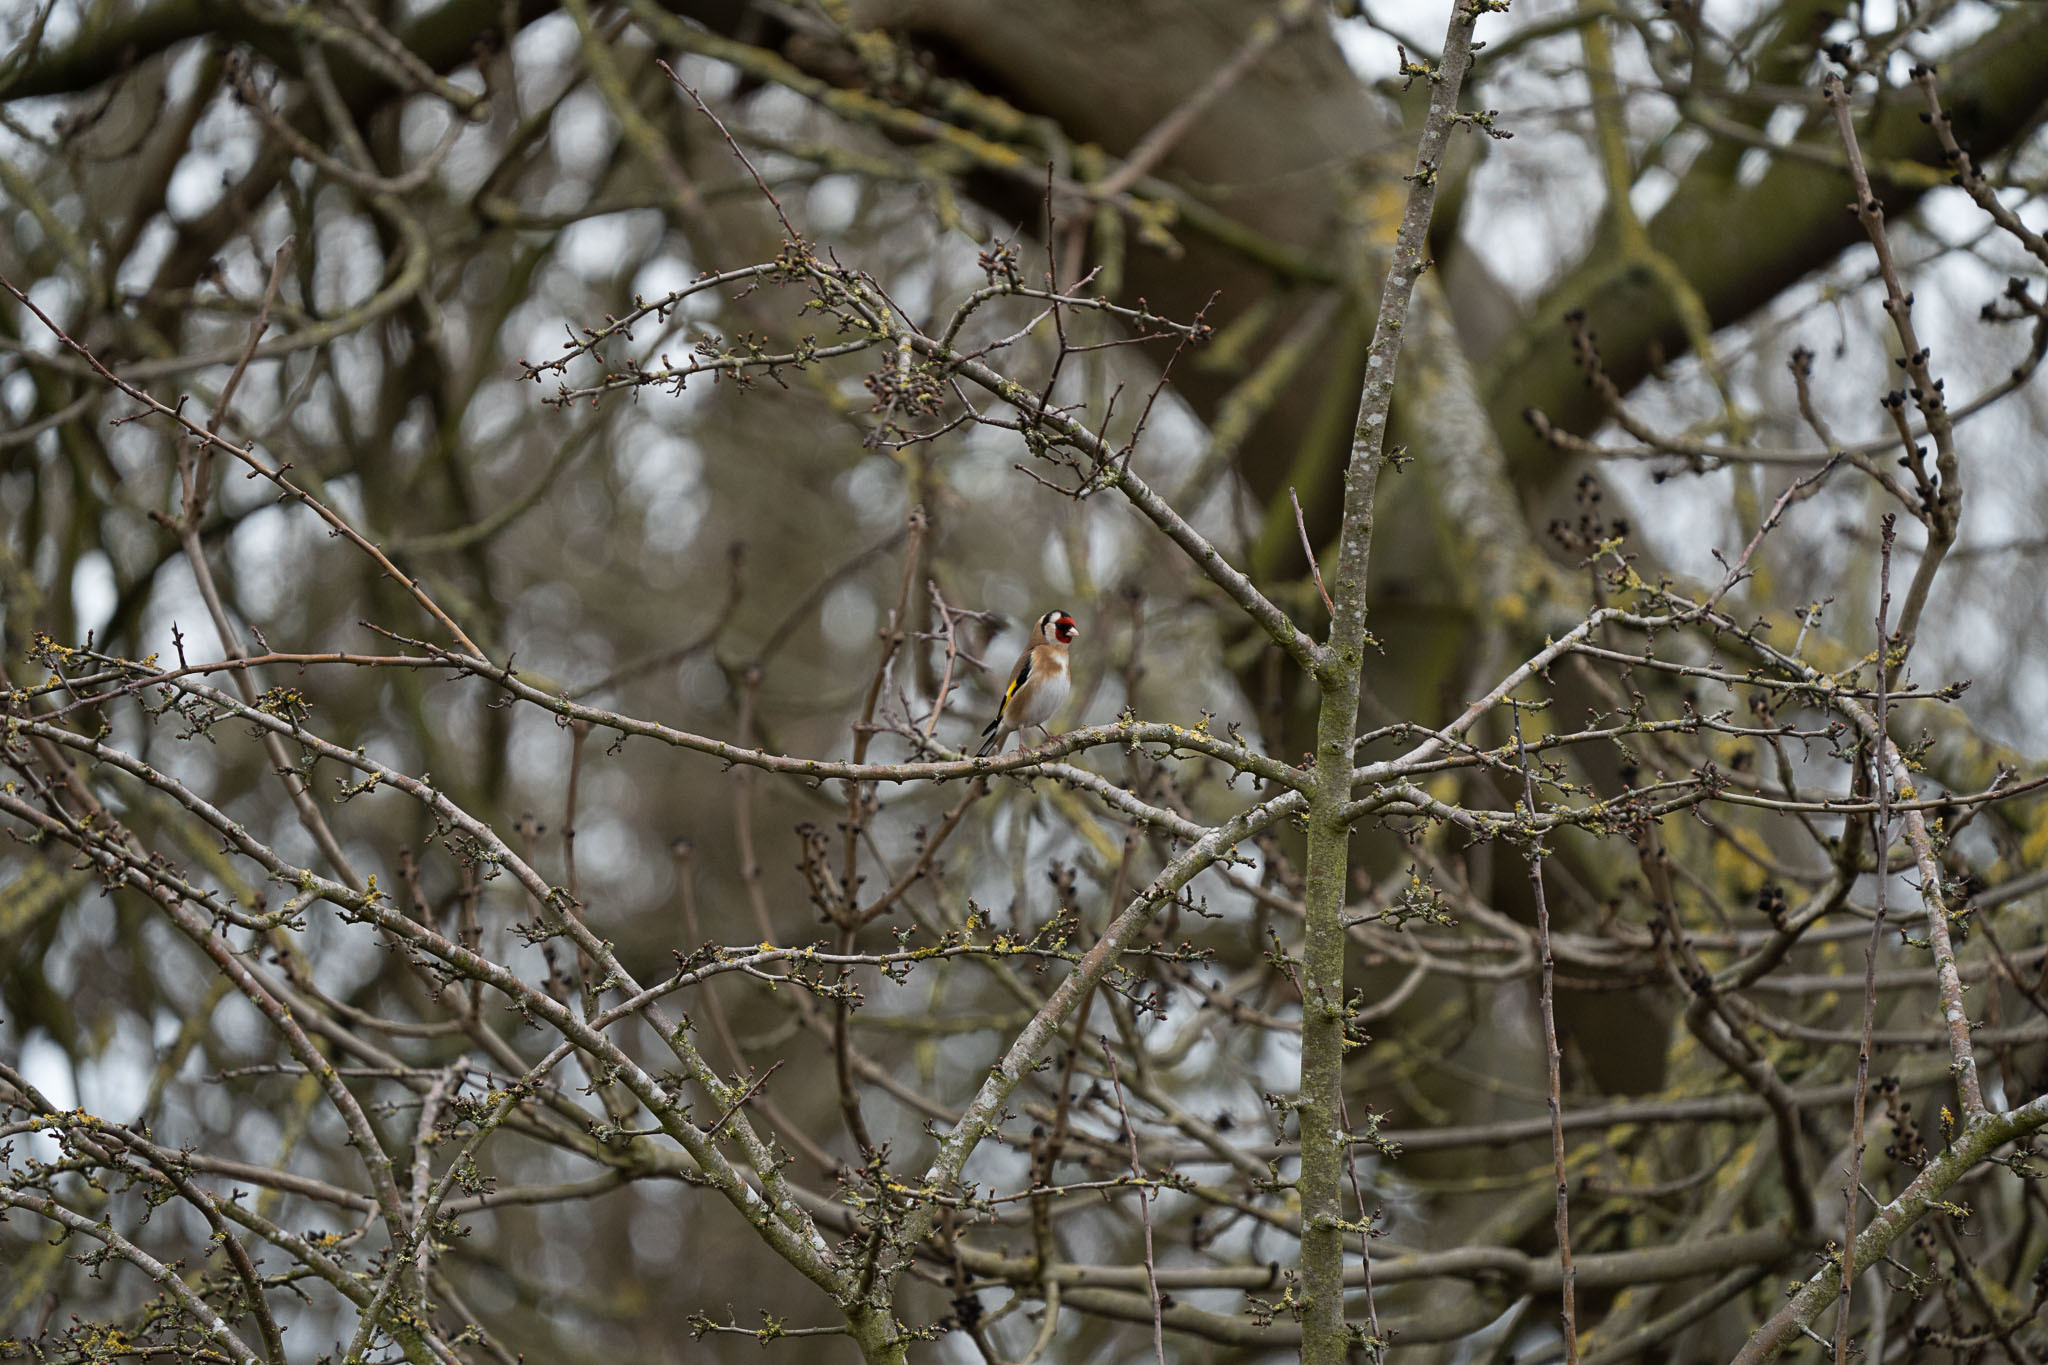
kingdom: Animalia
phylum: Chordata
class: Aves
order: Passeriformes
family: Fringillidae
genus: Carduelis
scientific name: Carduelis carduelis
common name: European goldfinch
